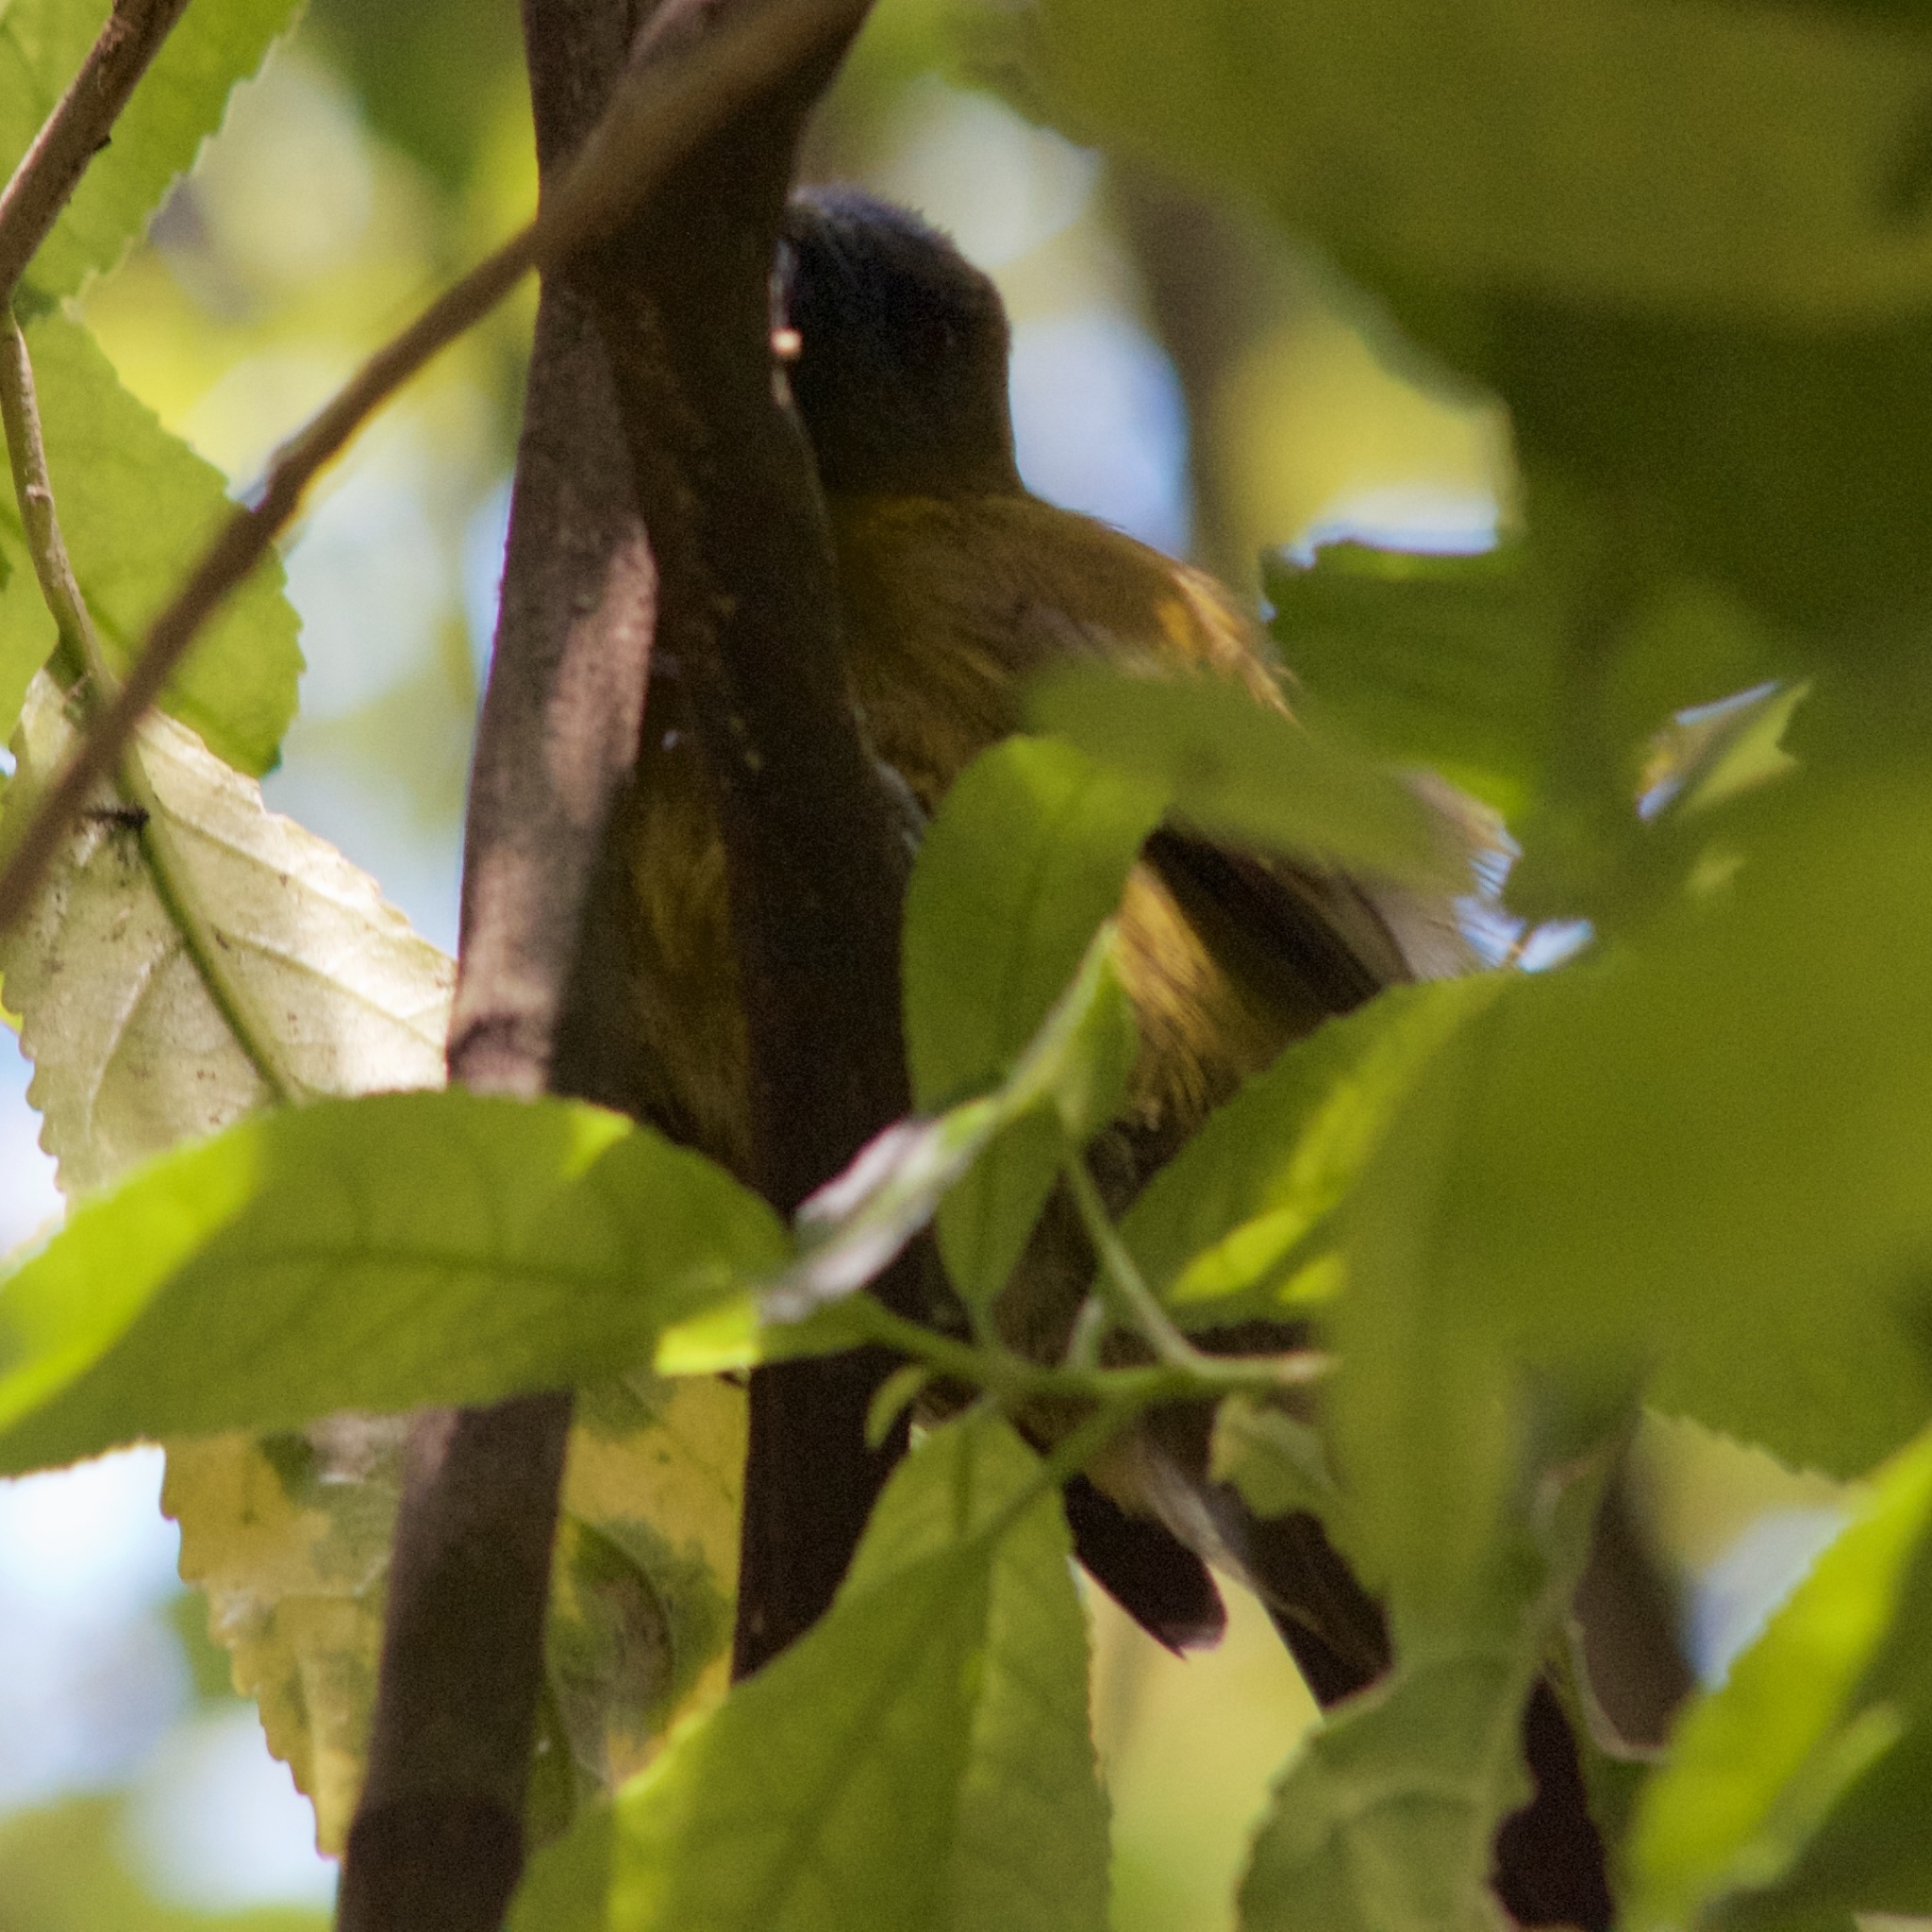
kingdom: Animalia
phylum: Chordata
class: Aves
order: Passeriformes
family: Meliphagidae
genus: Anthornis
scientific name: Anthornis melanura
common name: New zealand bellbird
